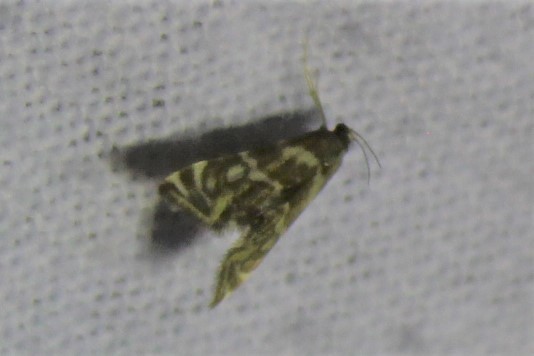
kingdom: Animalia
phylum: Arthropoda
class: Insecta
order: Lepidoptera
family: Crambidae
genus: Petrophila
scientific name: Petrophila canadensis
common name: Canadian petrophila
